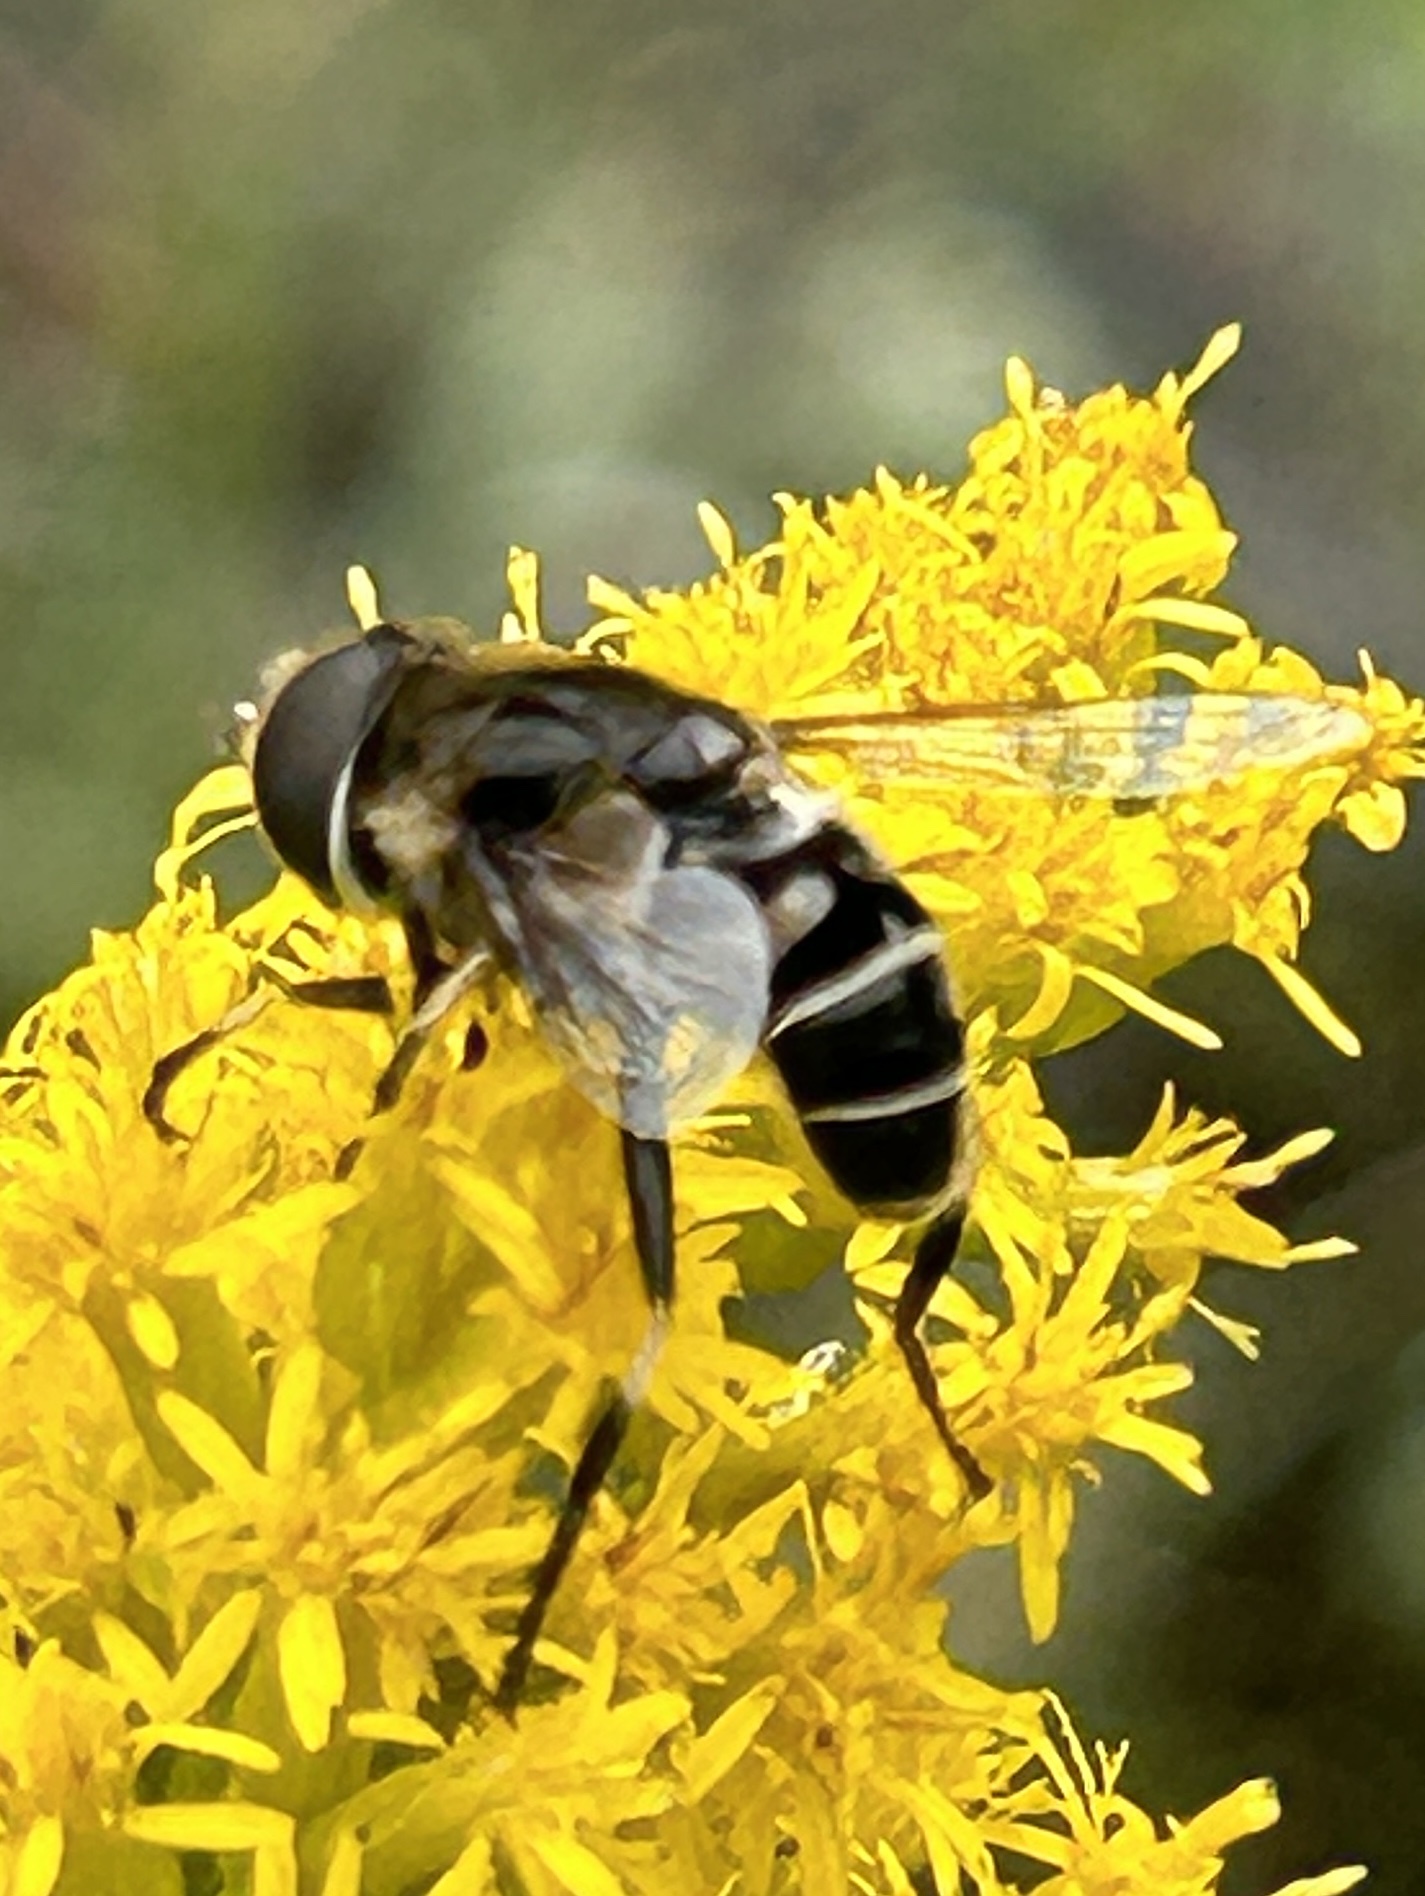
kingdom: Animalia
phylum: Arthropoda
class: Insecta
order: Diptera
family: Syrphidae
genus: Eristalis
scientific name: Eristalis dimidiata
